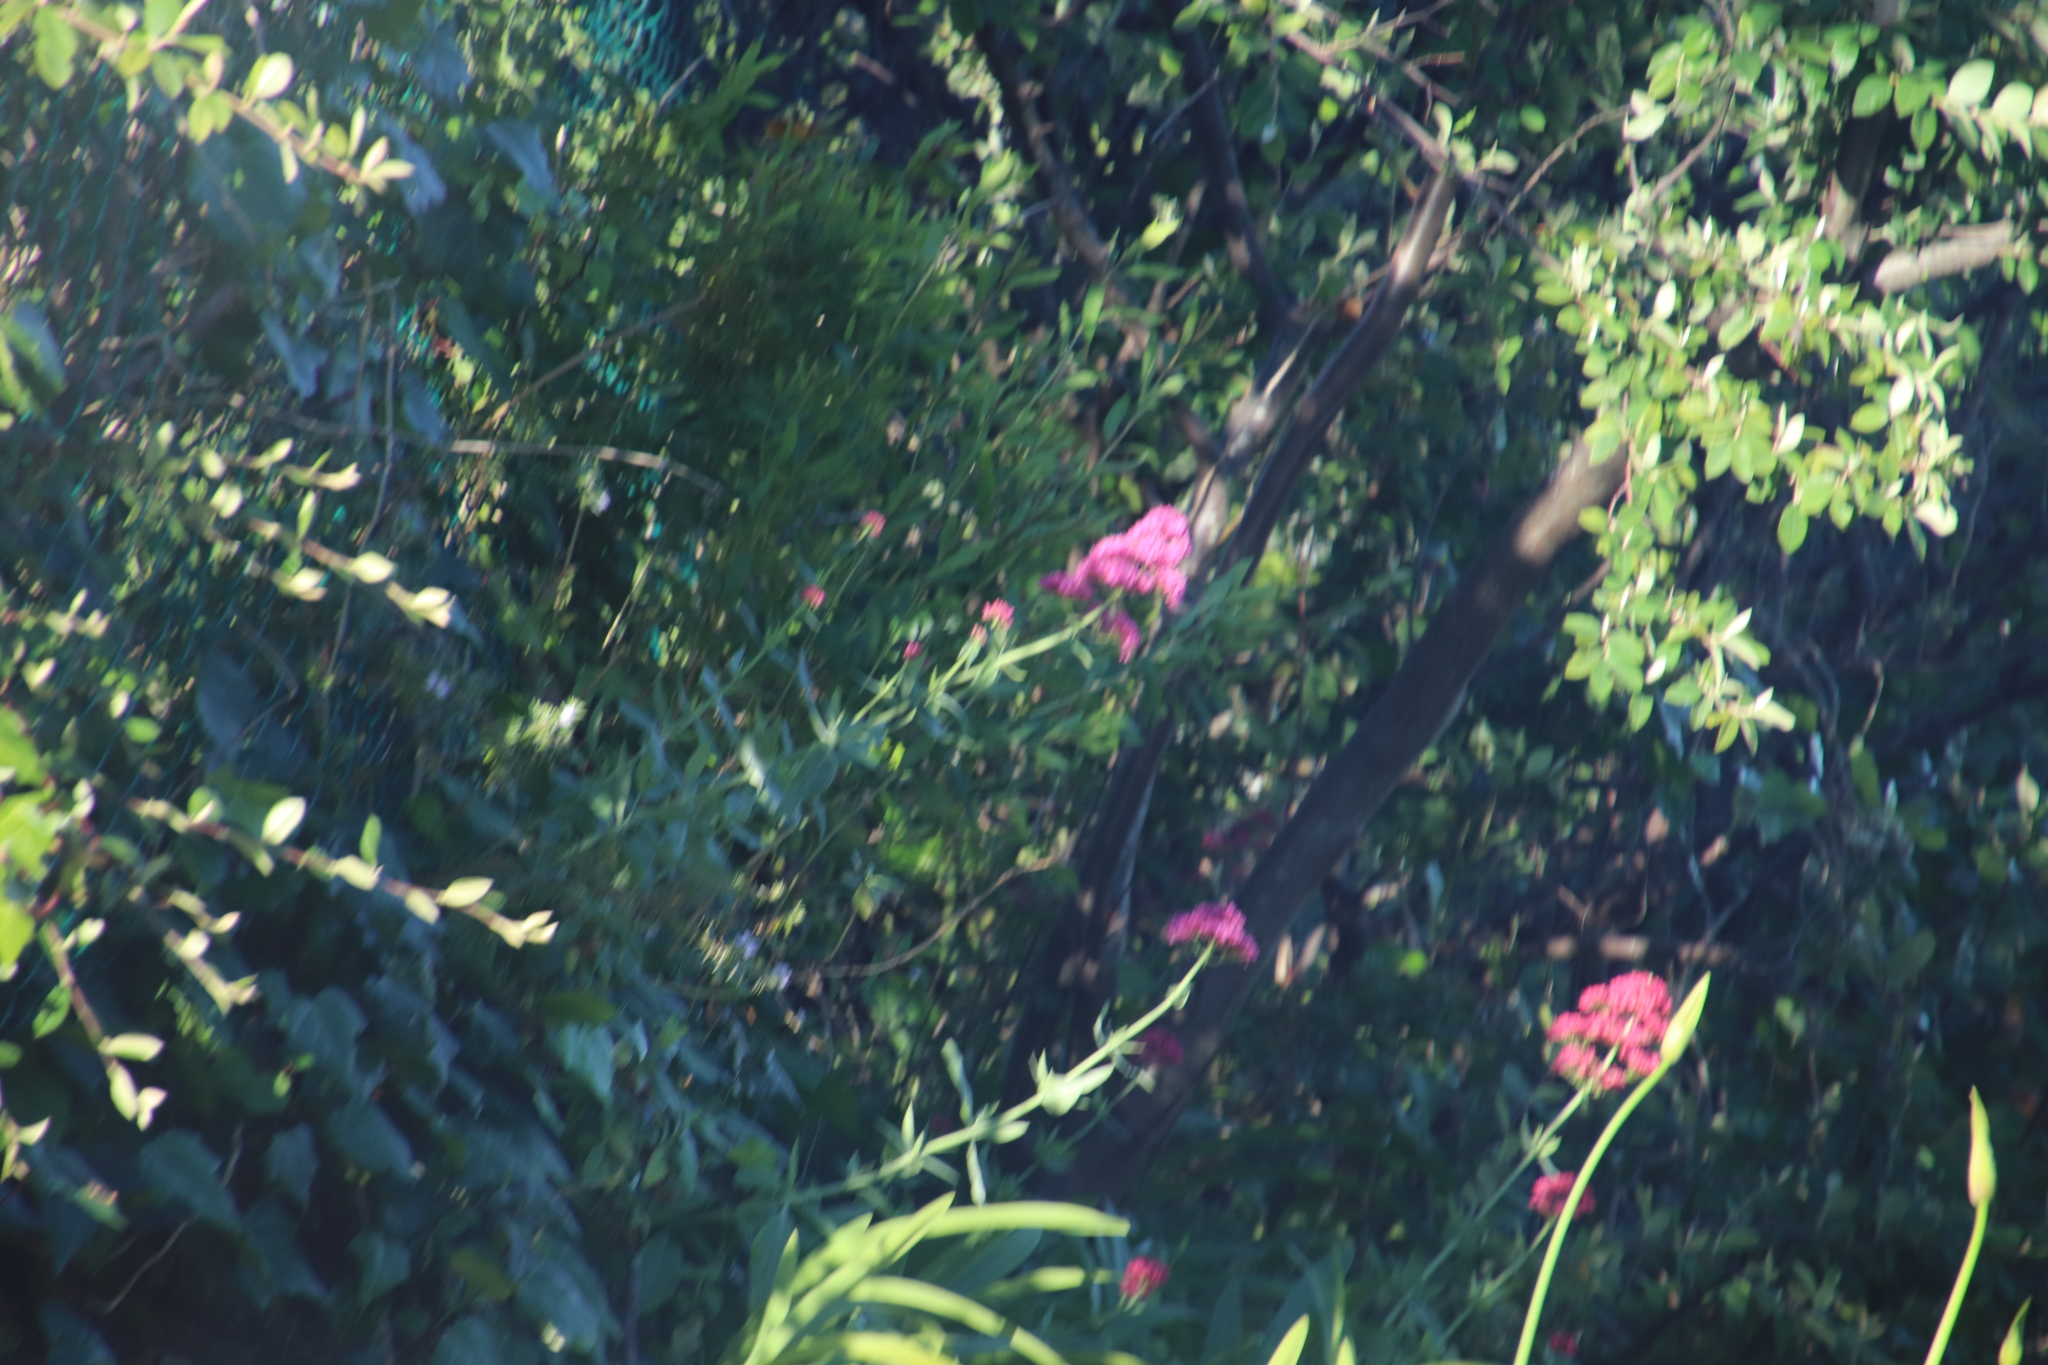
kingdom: Plantae
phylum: Tracheophyta
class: Magnoliopsida
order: Dipsacales
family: Caprifoliaceae
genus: Centranthus
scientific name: Centranthus ruber
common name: Red valerian
